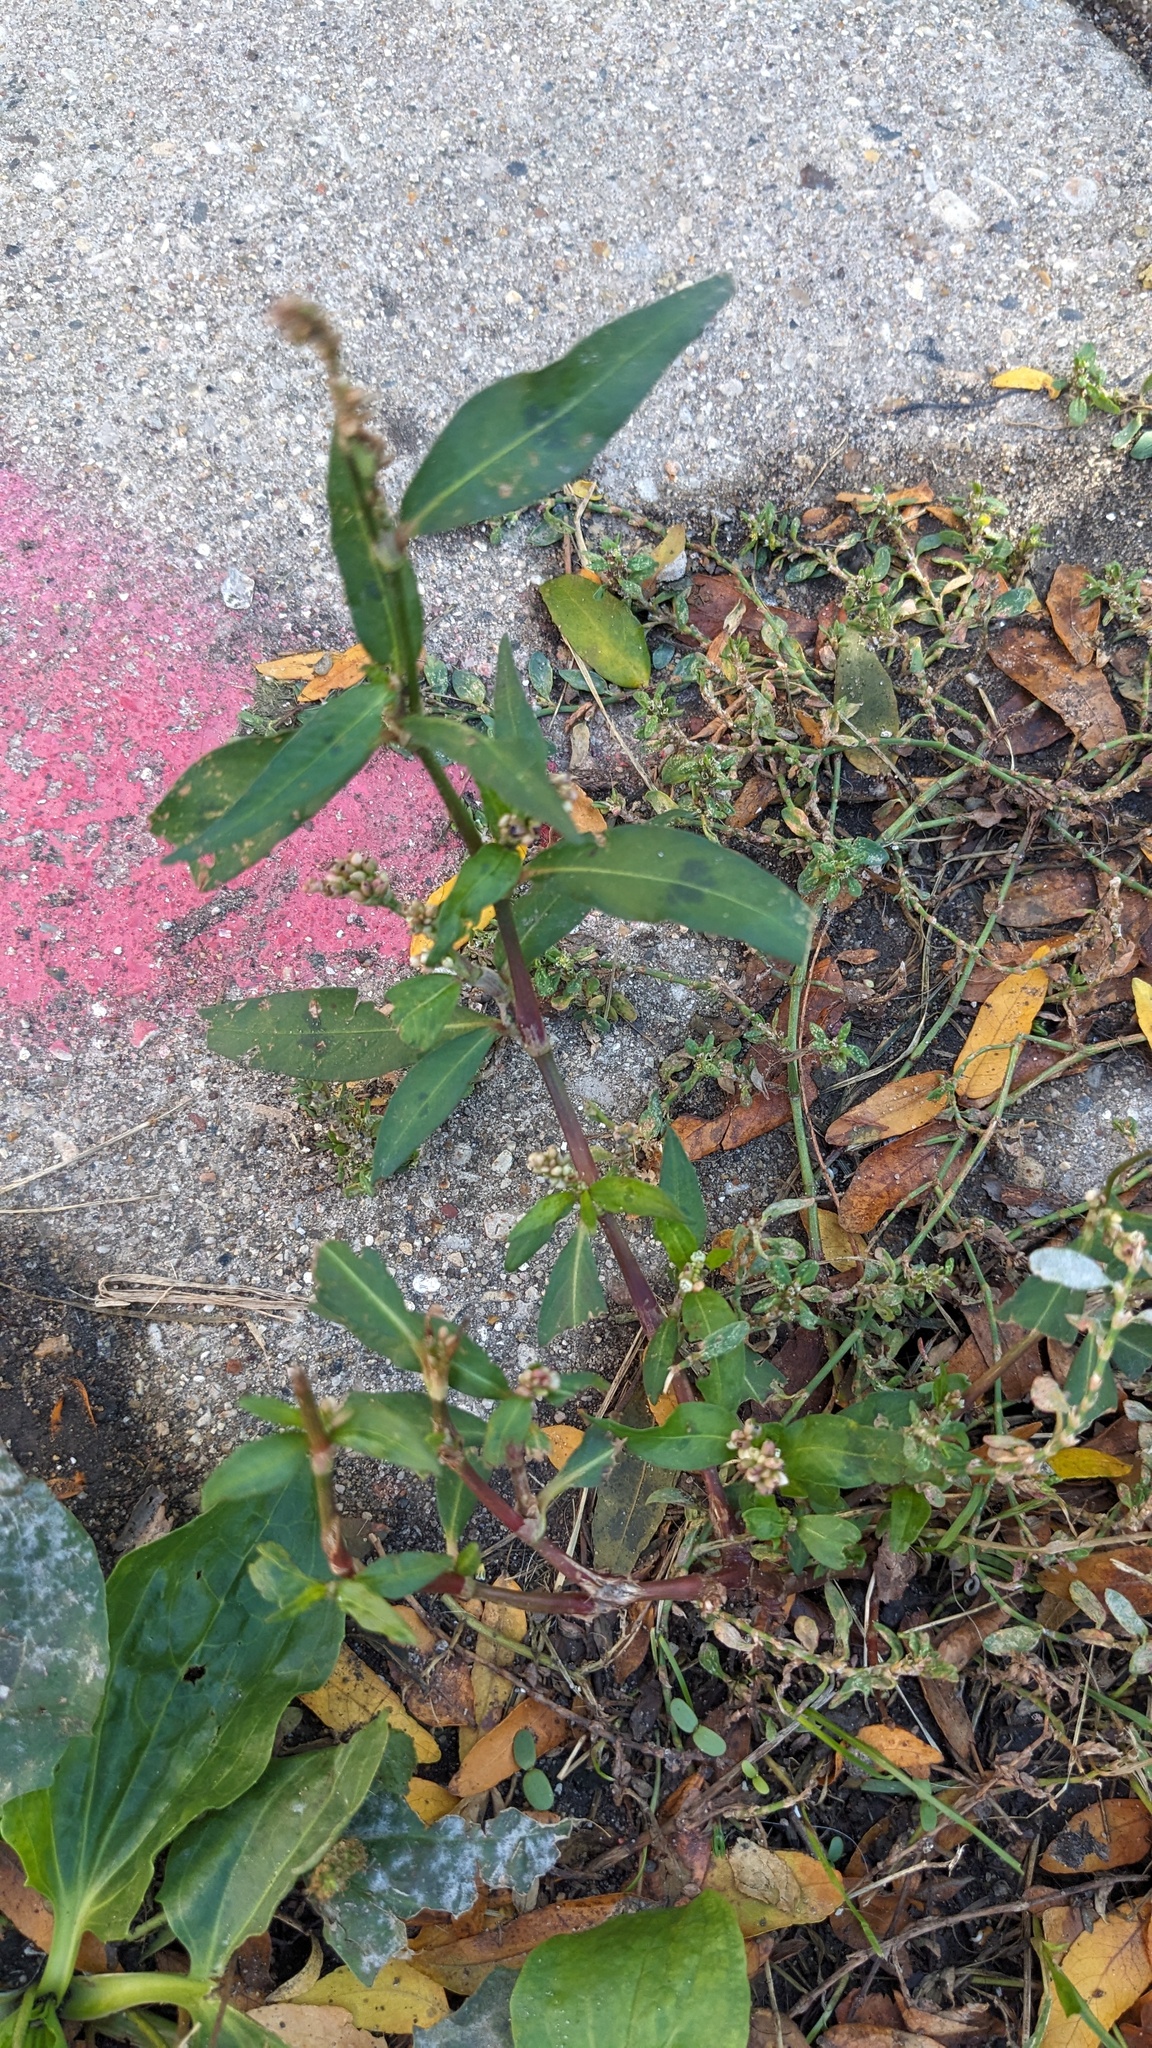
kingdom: Plantae
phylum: Tracheophyta
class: Magnoliopsida
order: Caryophyllales
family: Polygonaceae
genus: Persicaria
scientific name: Persicaria maculosa
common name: Redshank
